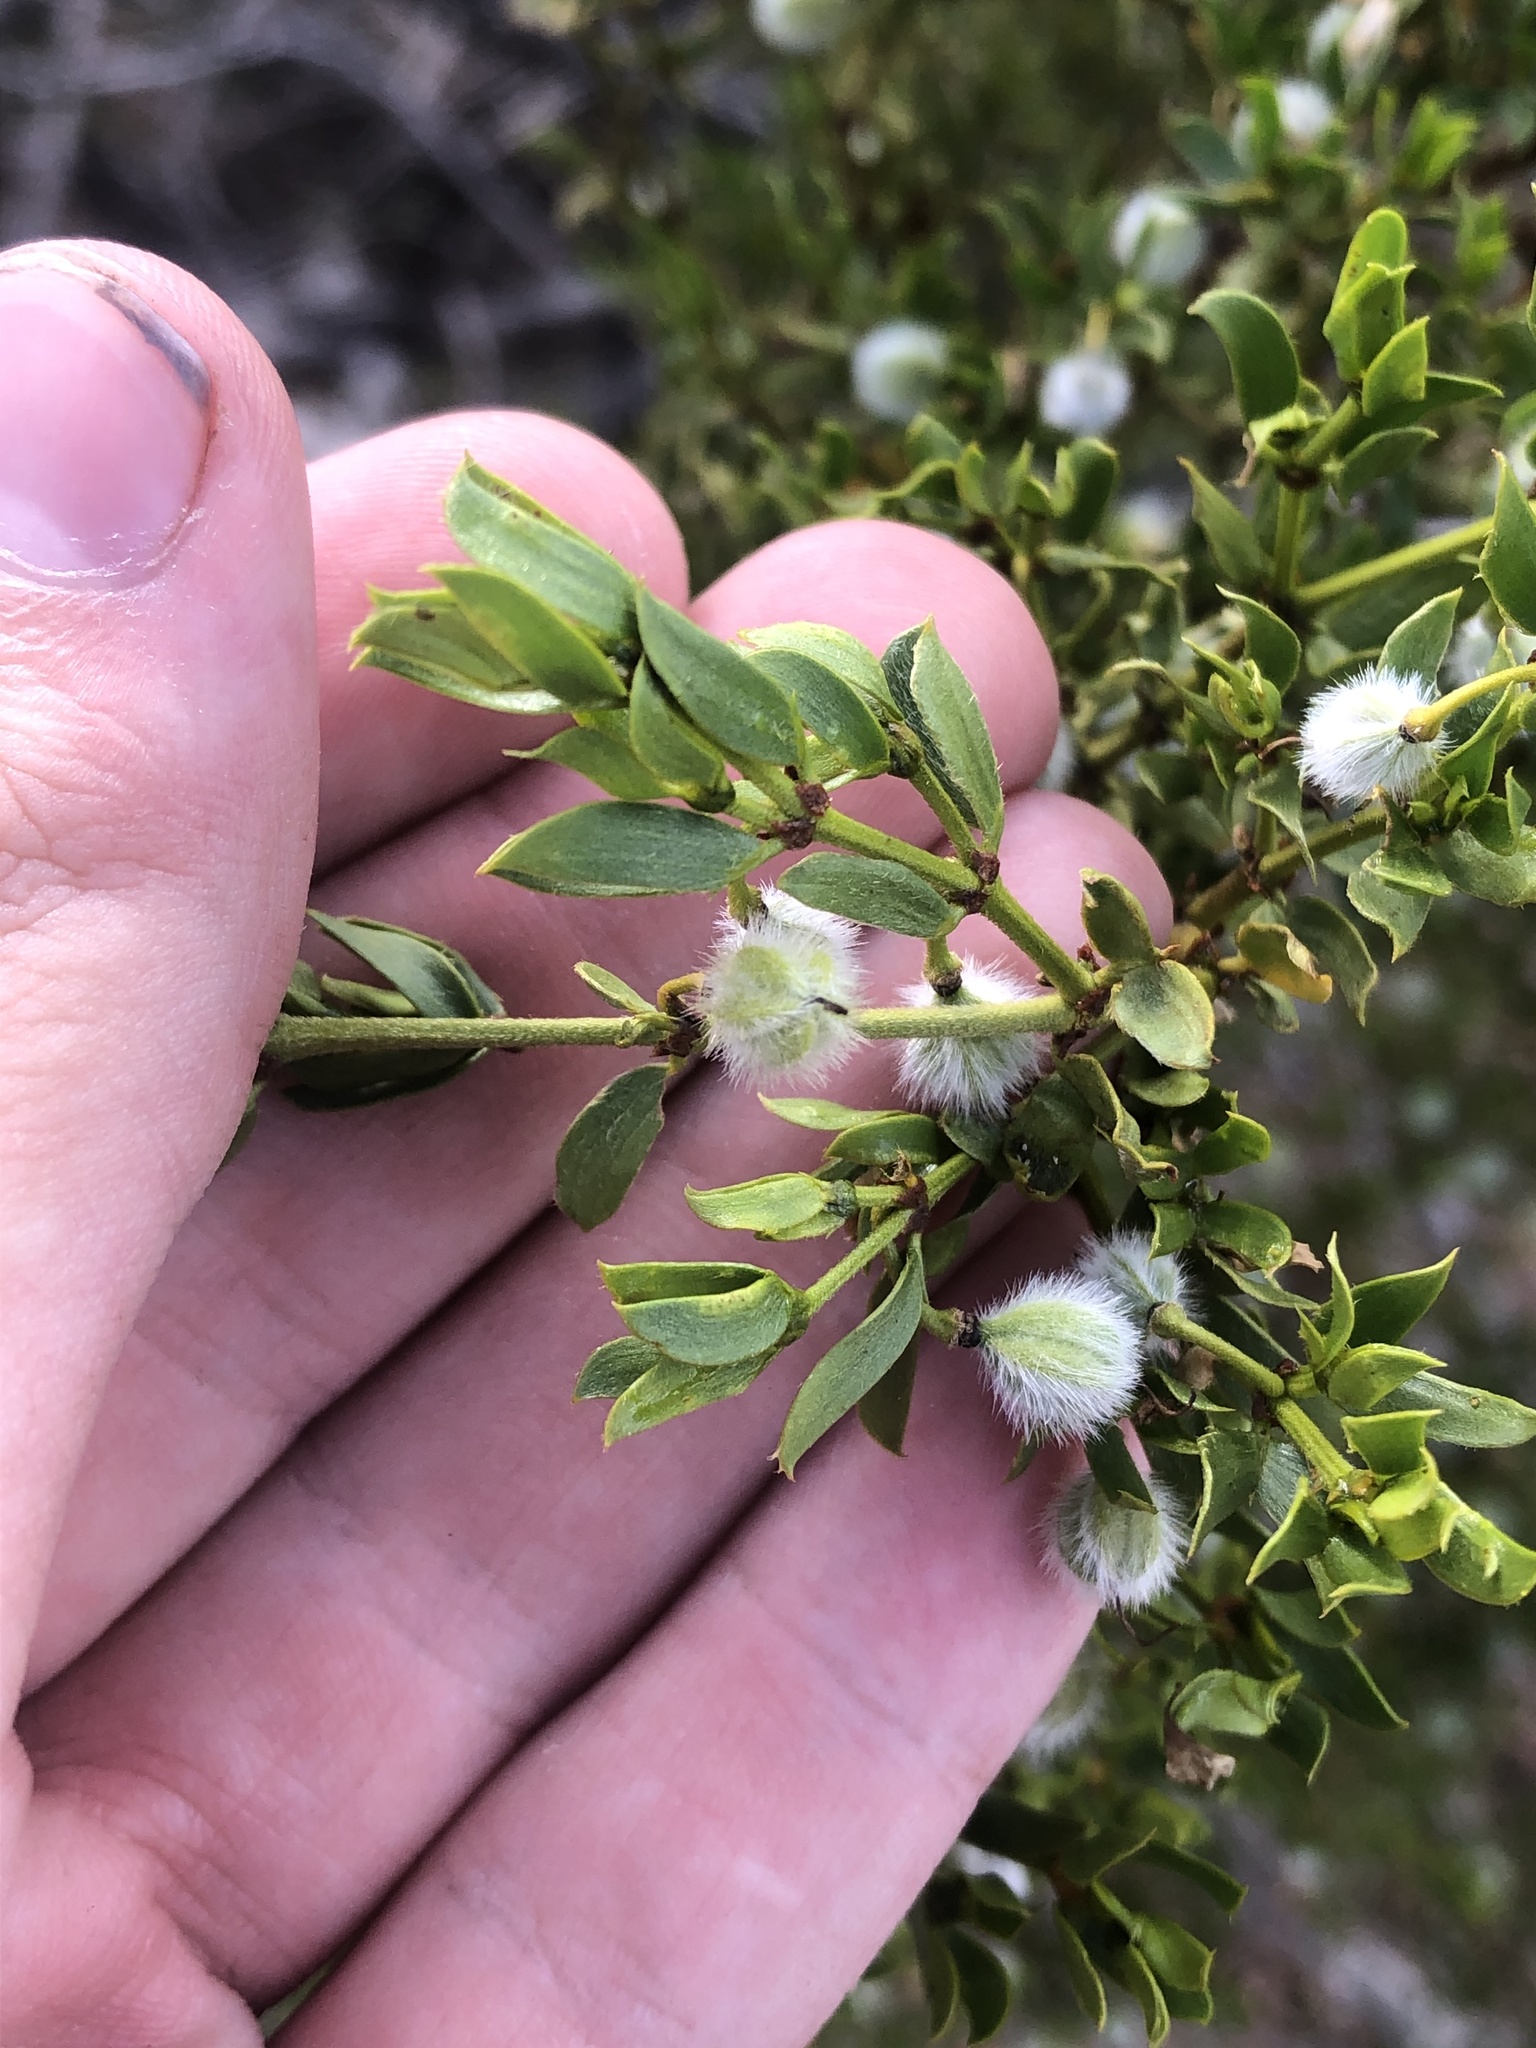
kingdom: Plantae
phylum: Tracheophyta
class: Magnoliopsida
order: Zygophyllales
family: Zygophyllaceae
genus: Larrea
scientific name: Larrea tridentata
